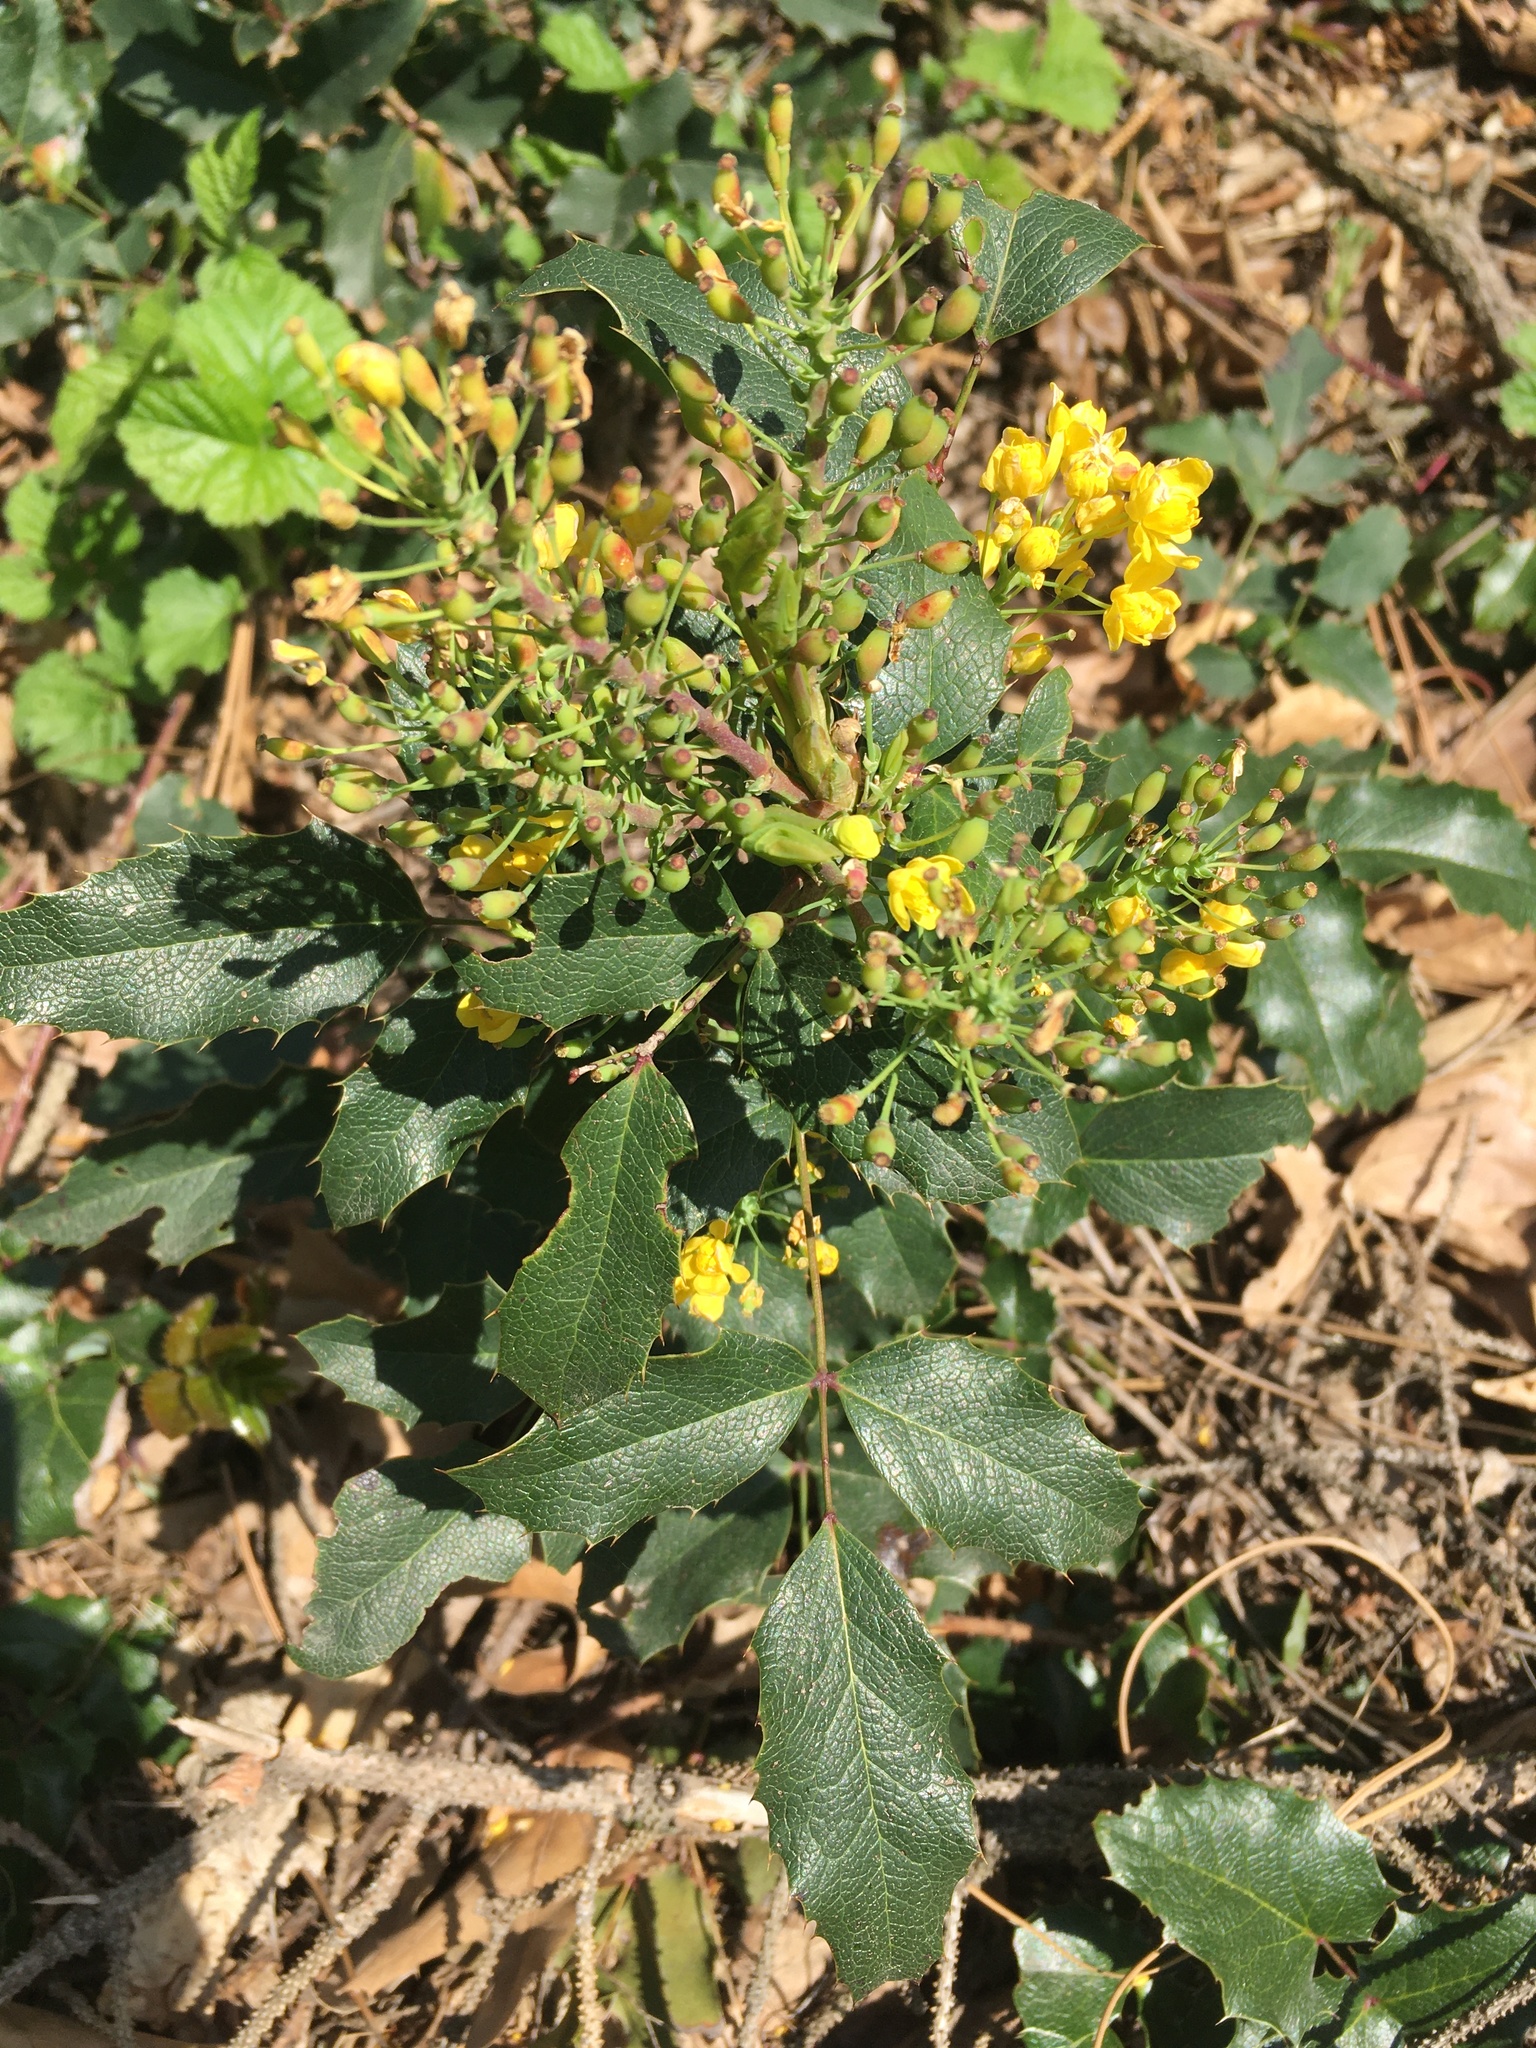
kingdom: Plantae
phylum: Tracheophyta
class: Magnoliopsida
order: Ranunculales
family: Berberidaceae
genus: Mahonia
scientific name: Mahonia aquifolium
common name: Oregon-grape
